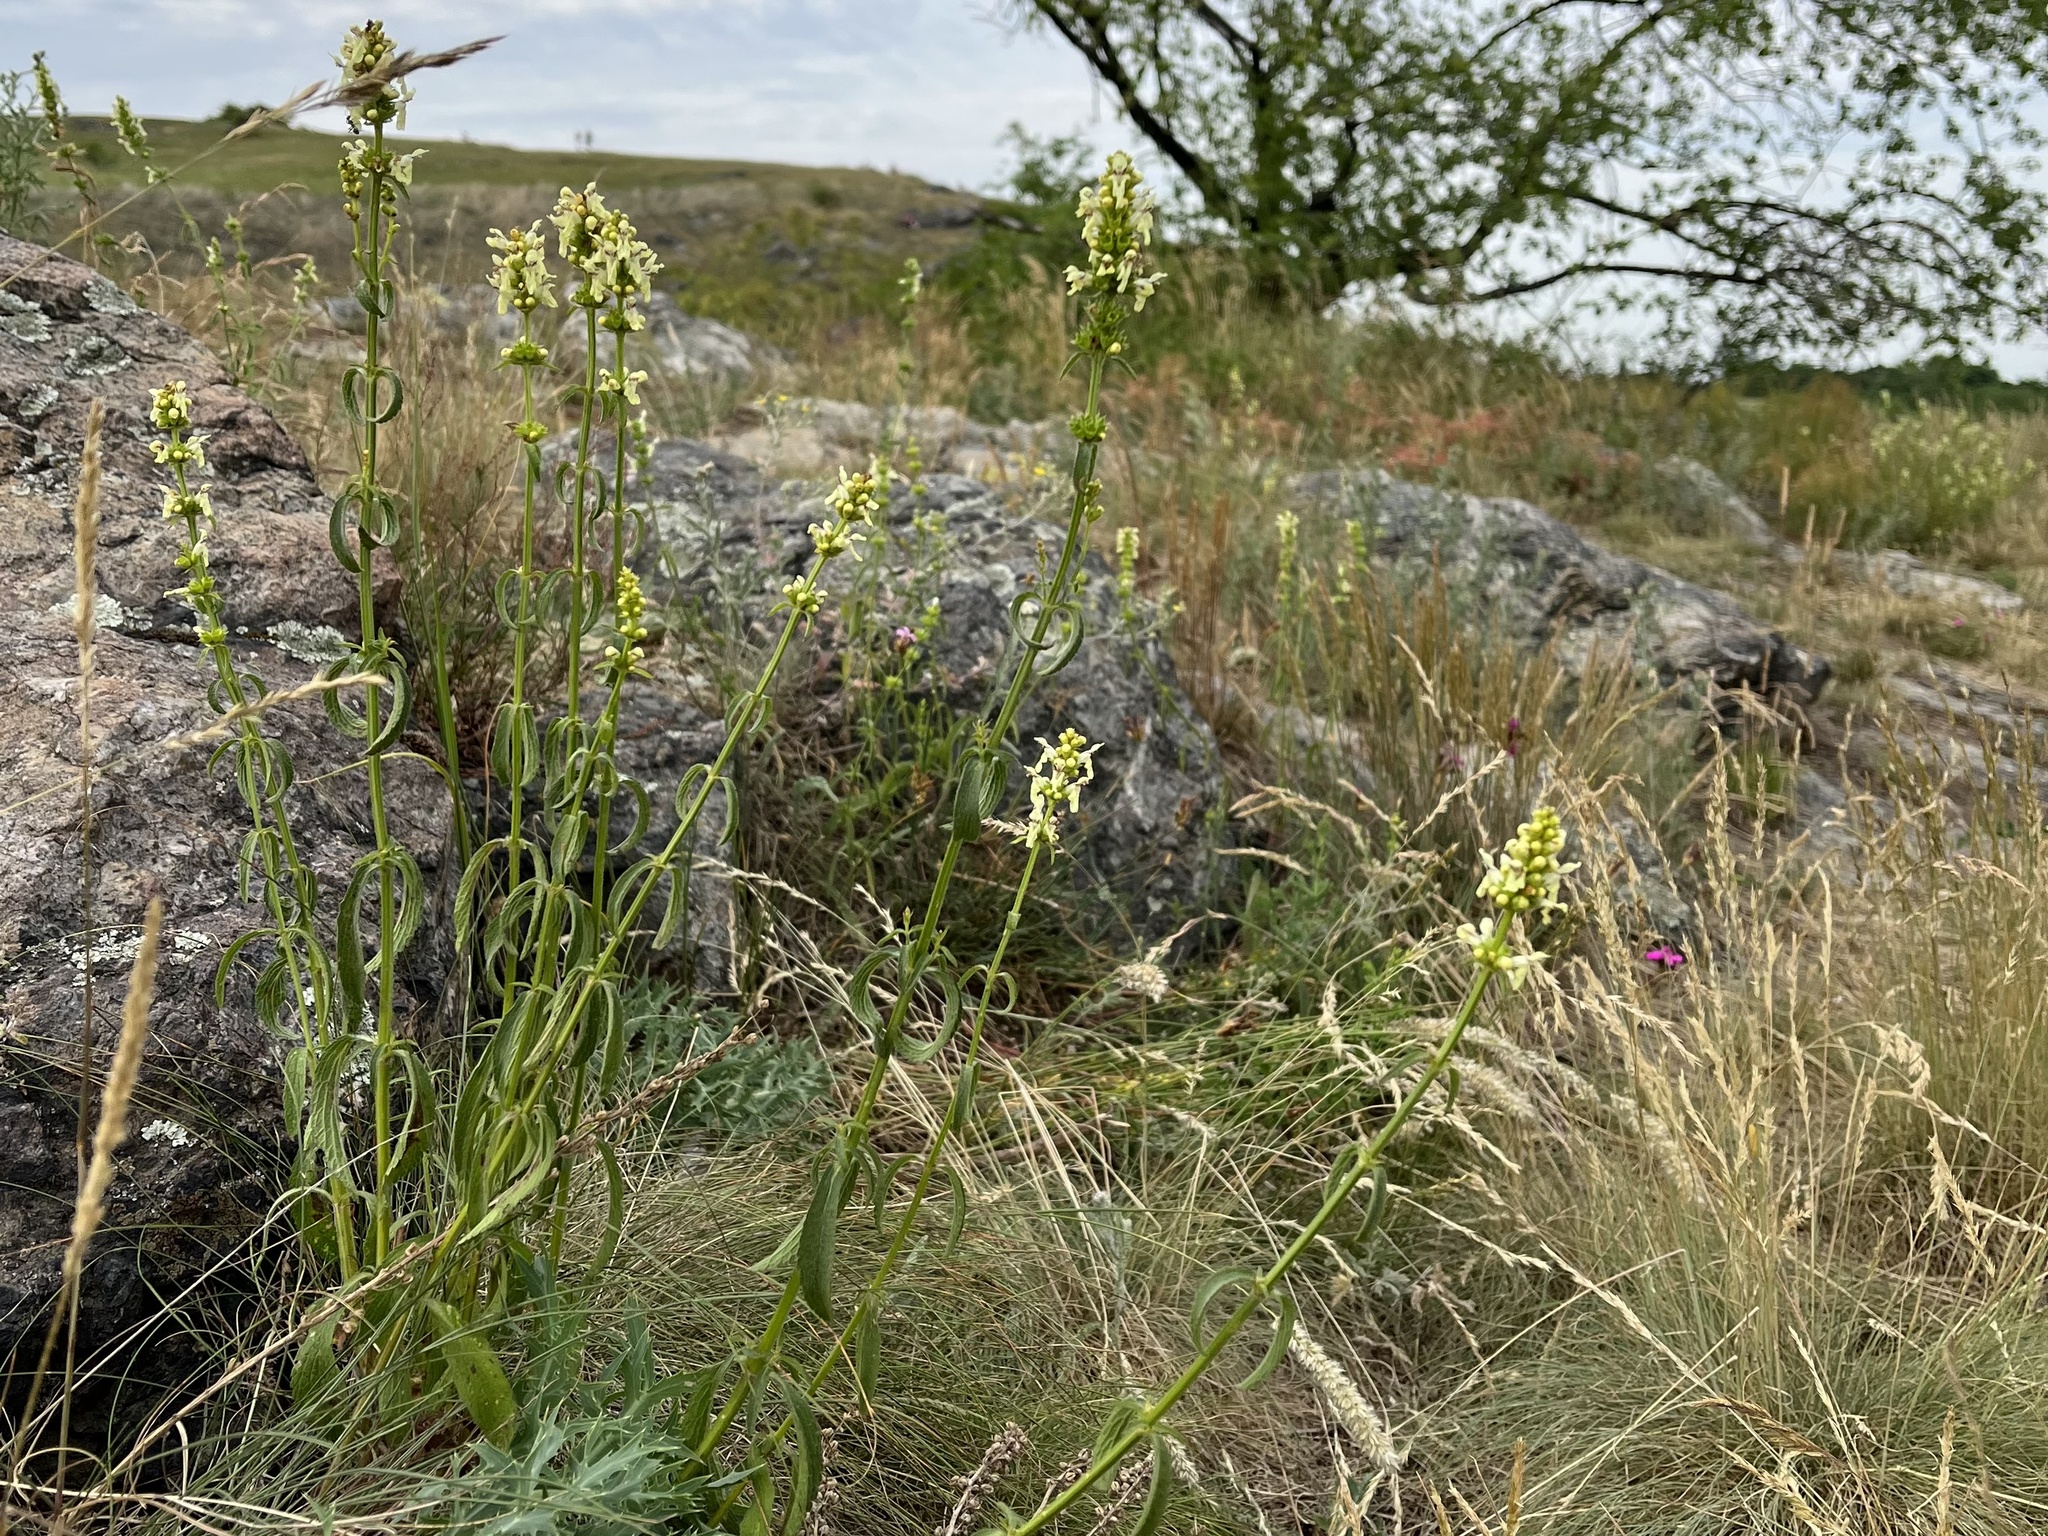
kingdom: Plantae
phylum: Tracheophyta
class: Magnoliopsida
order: Lamiales
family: Lamiaceae
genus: Stachys
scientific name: Stachys recta
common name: Perennial yellow-woundwort
